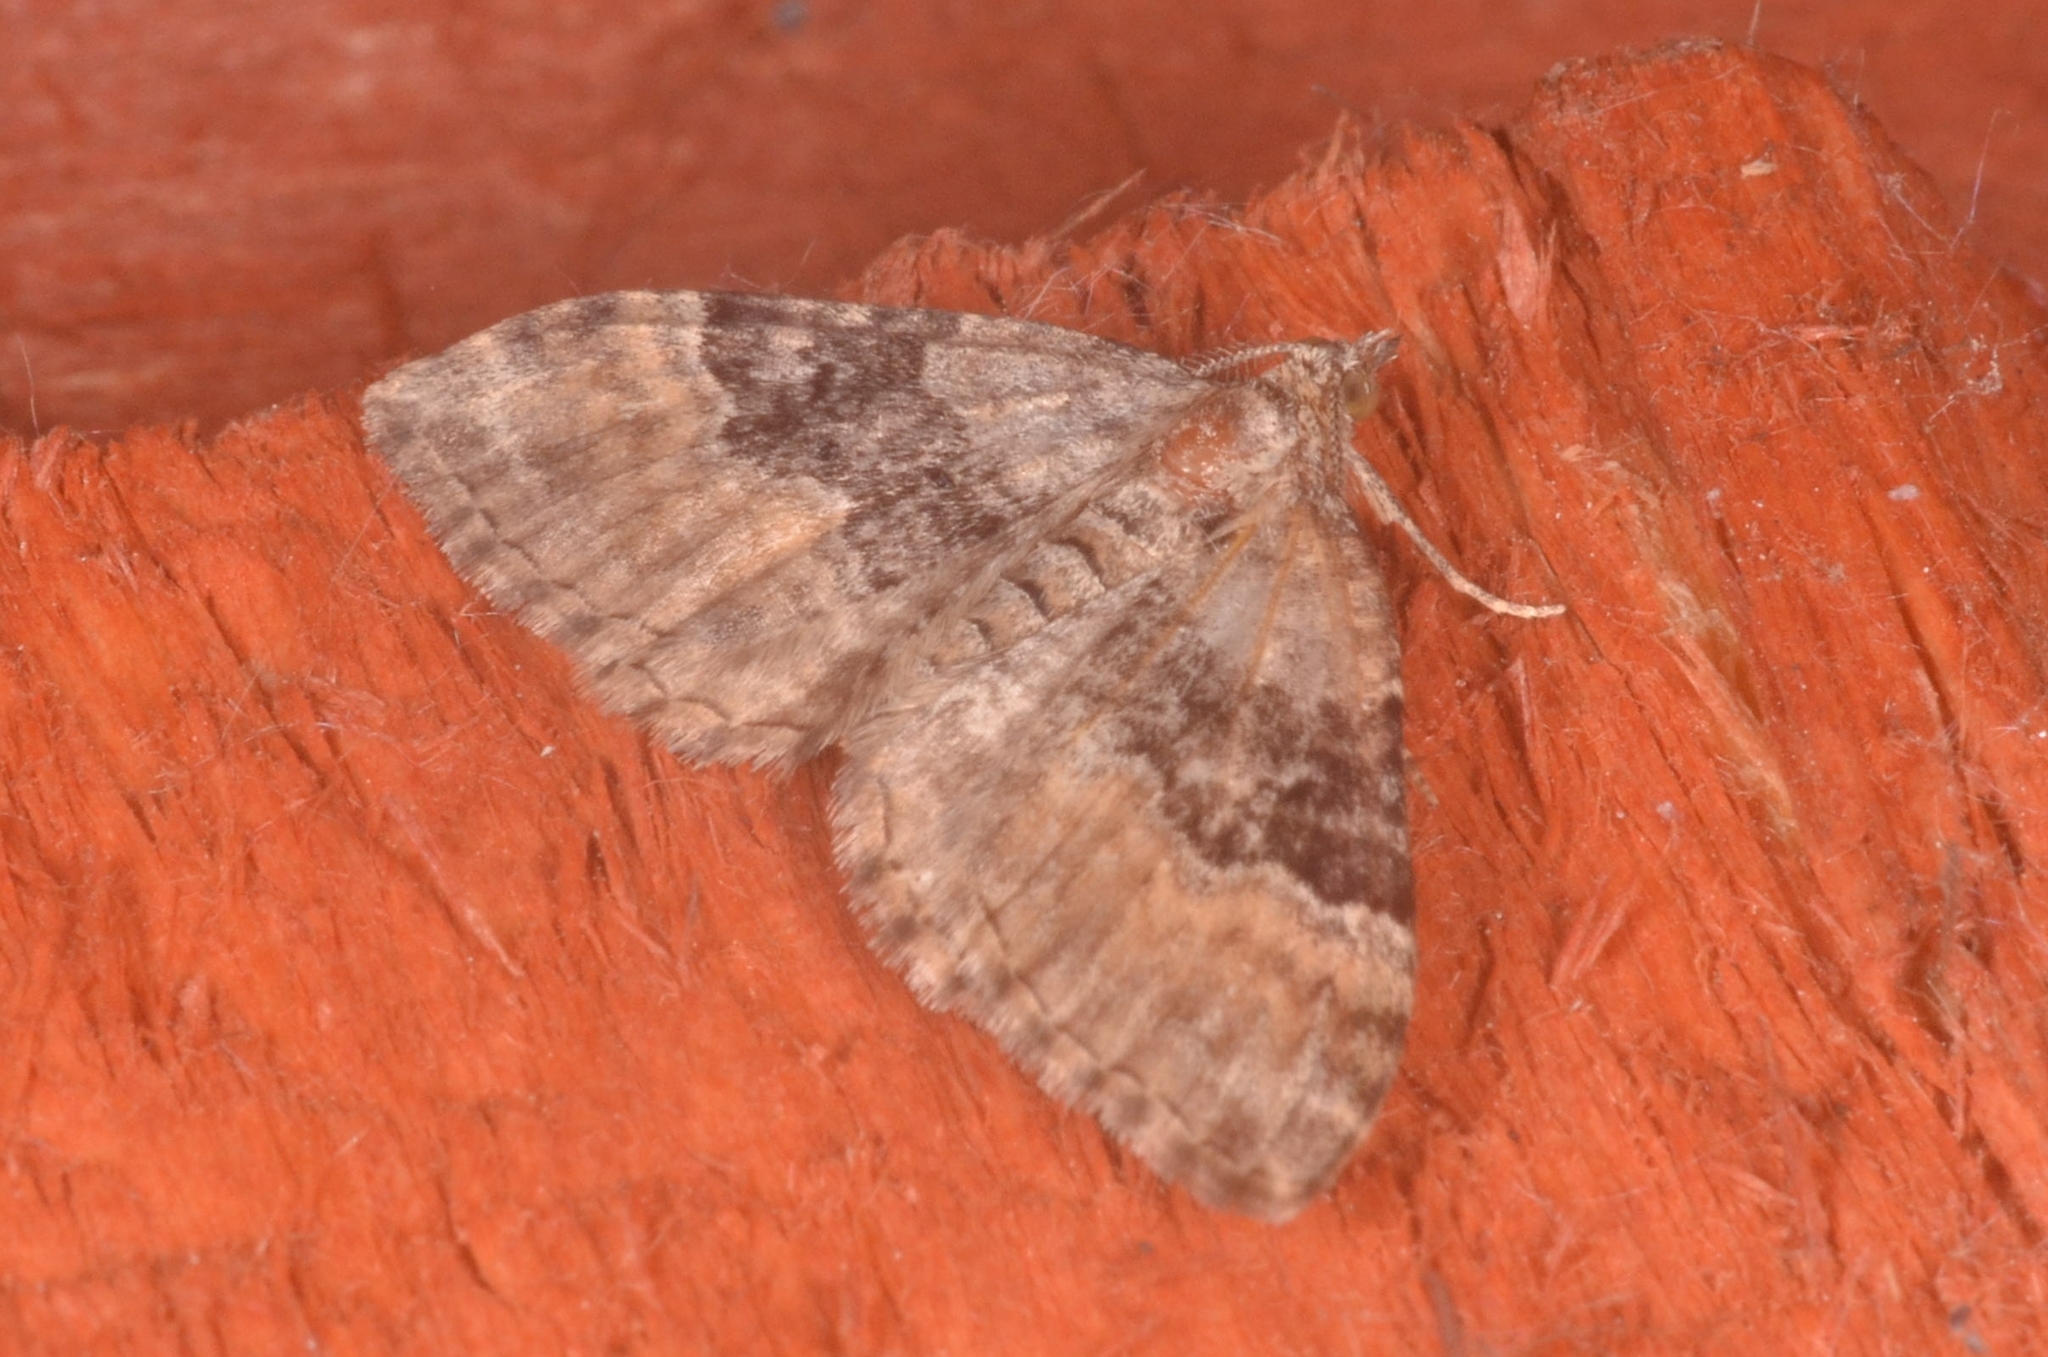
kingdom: Animalia
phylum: Arthropoda
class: Insecta
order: Lepidoptera
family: Geometridae
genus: Xanthorhoe
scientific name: Xanthorhoe quadrifasiata
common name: Large twin-spot carpet
